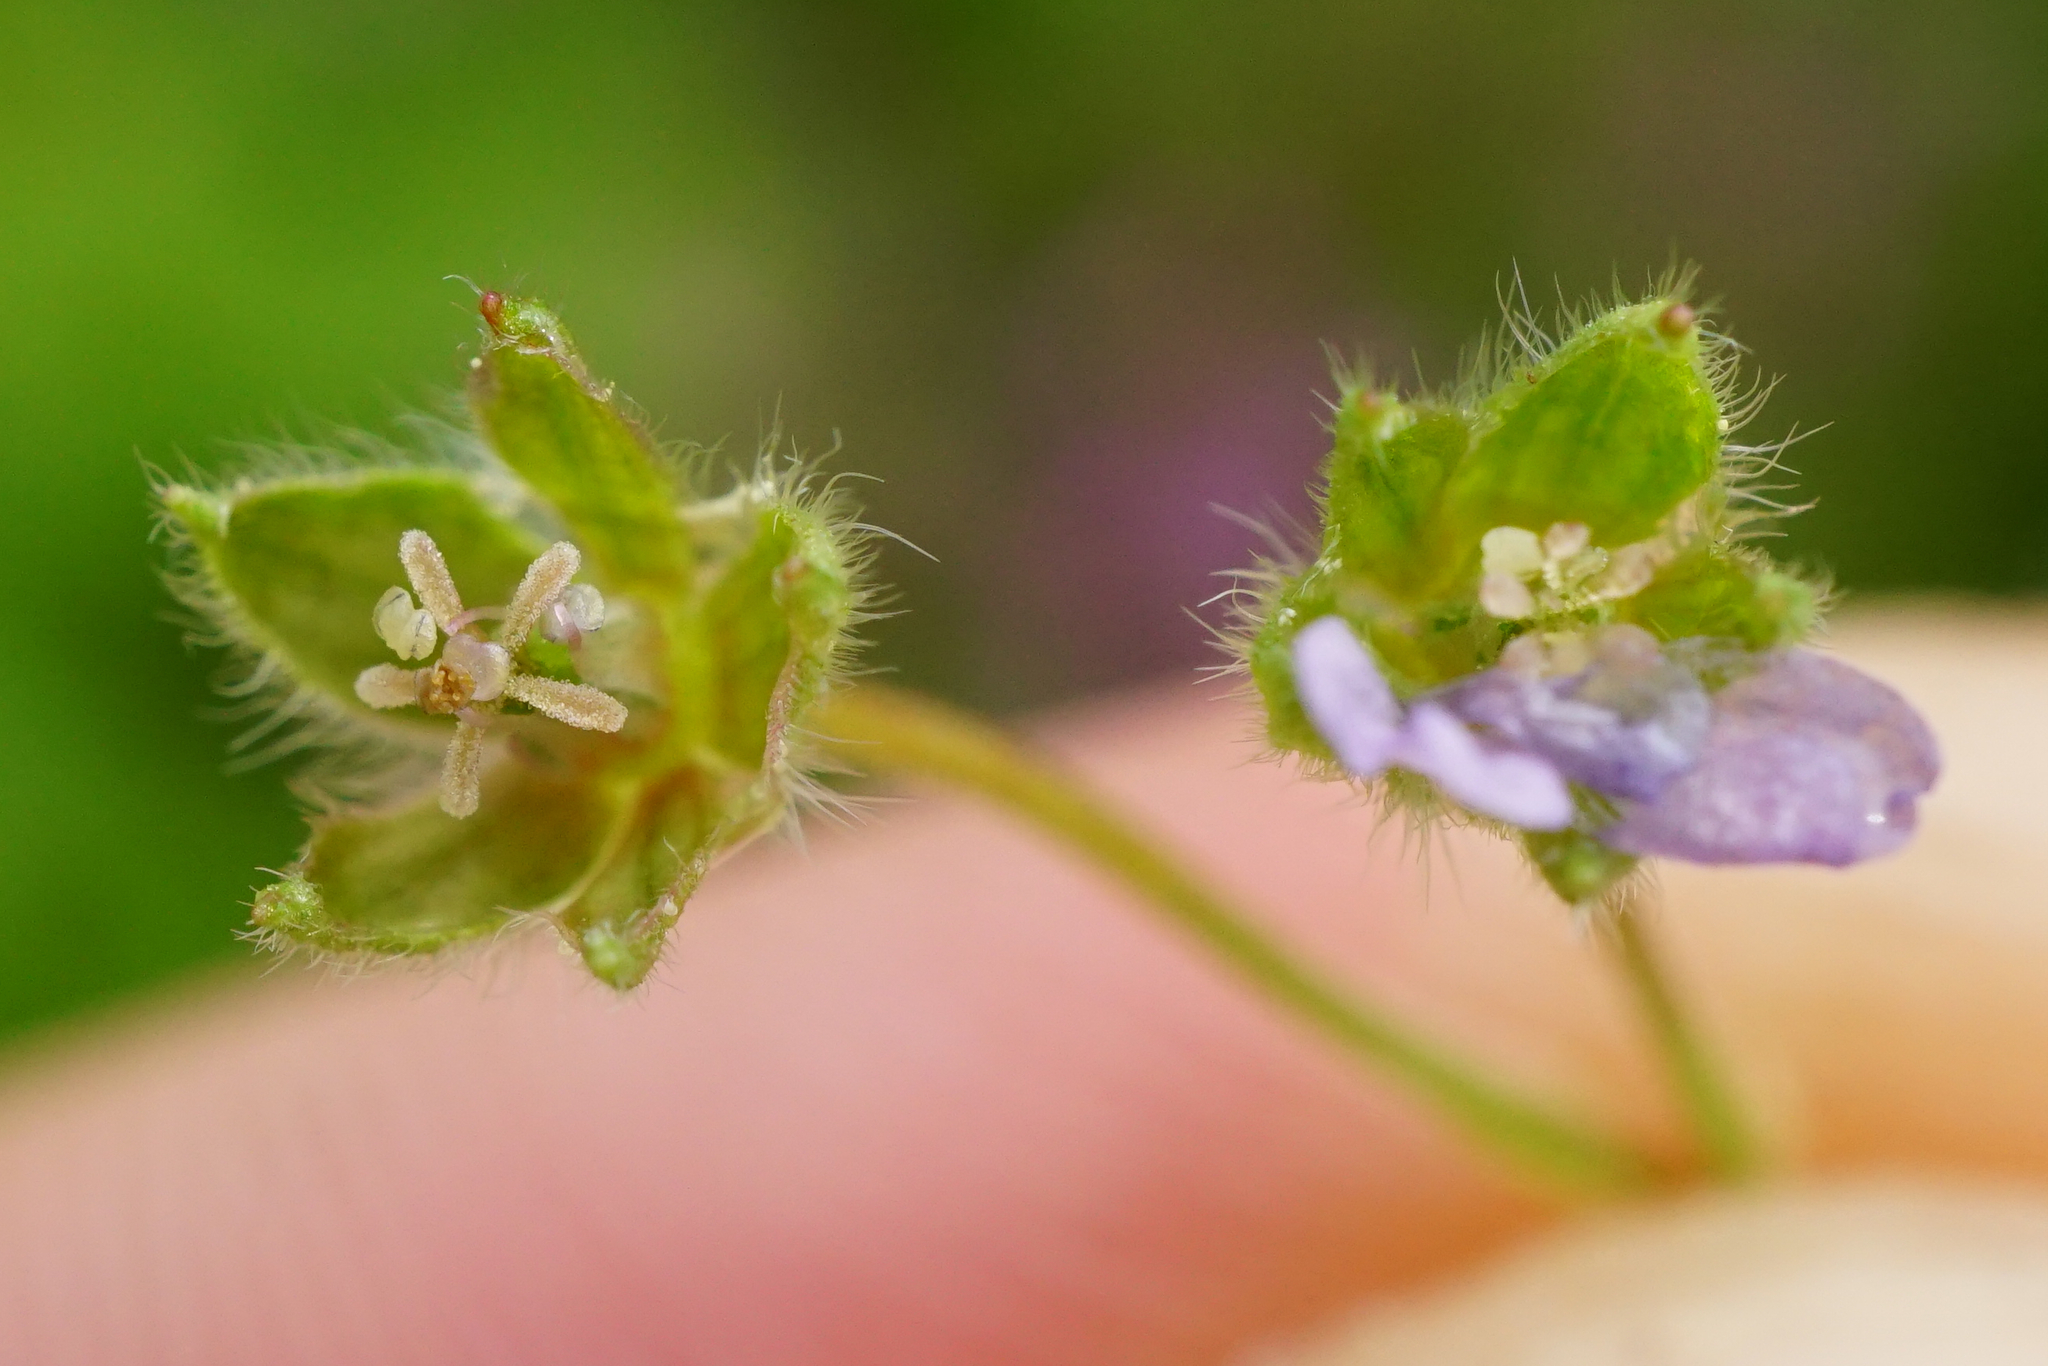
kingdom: Plantae
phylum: Tracheophyta
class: Magnoliopsida
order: Geraniales
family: Geraniaceae
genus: Geranium
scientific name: Geranium pusillum
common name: Small geranium
